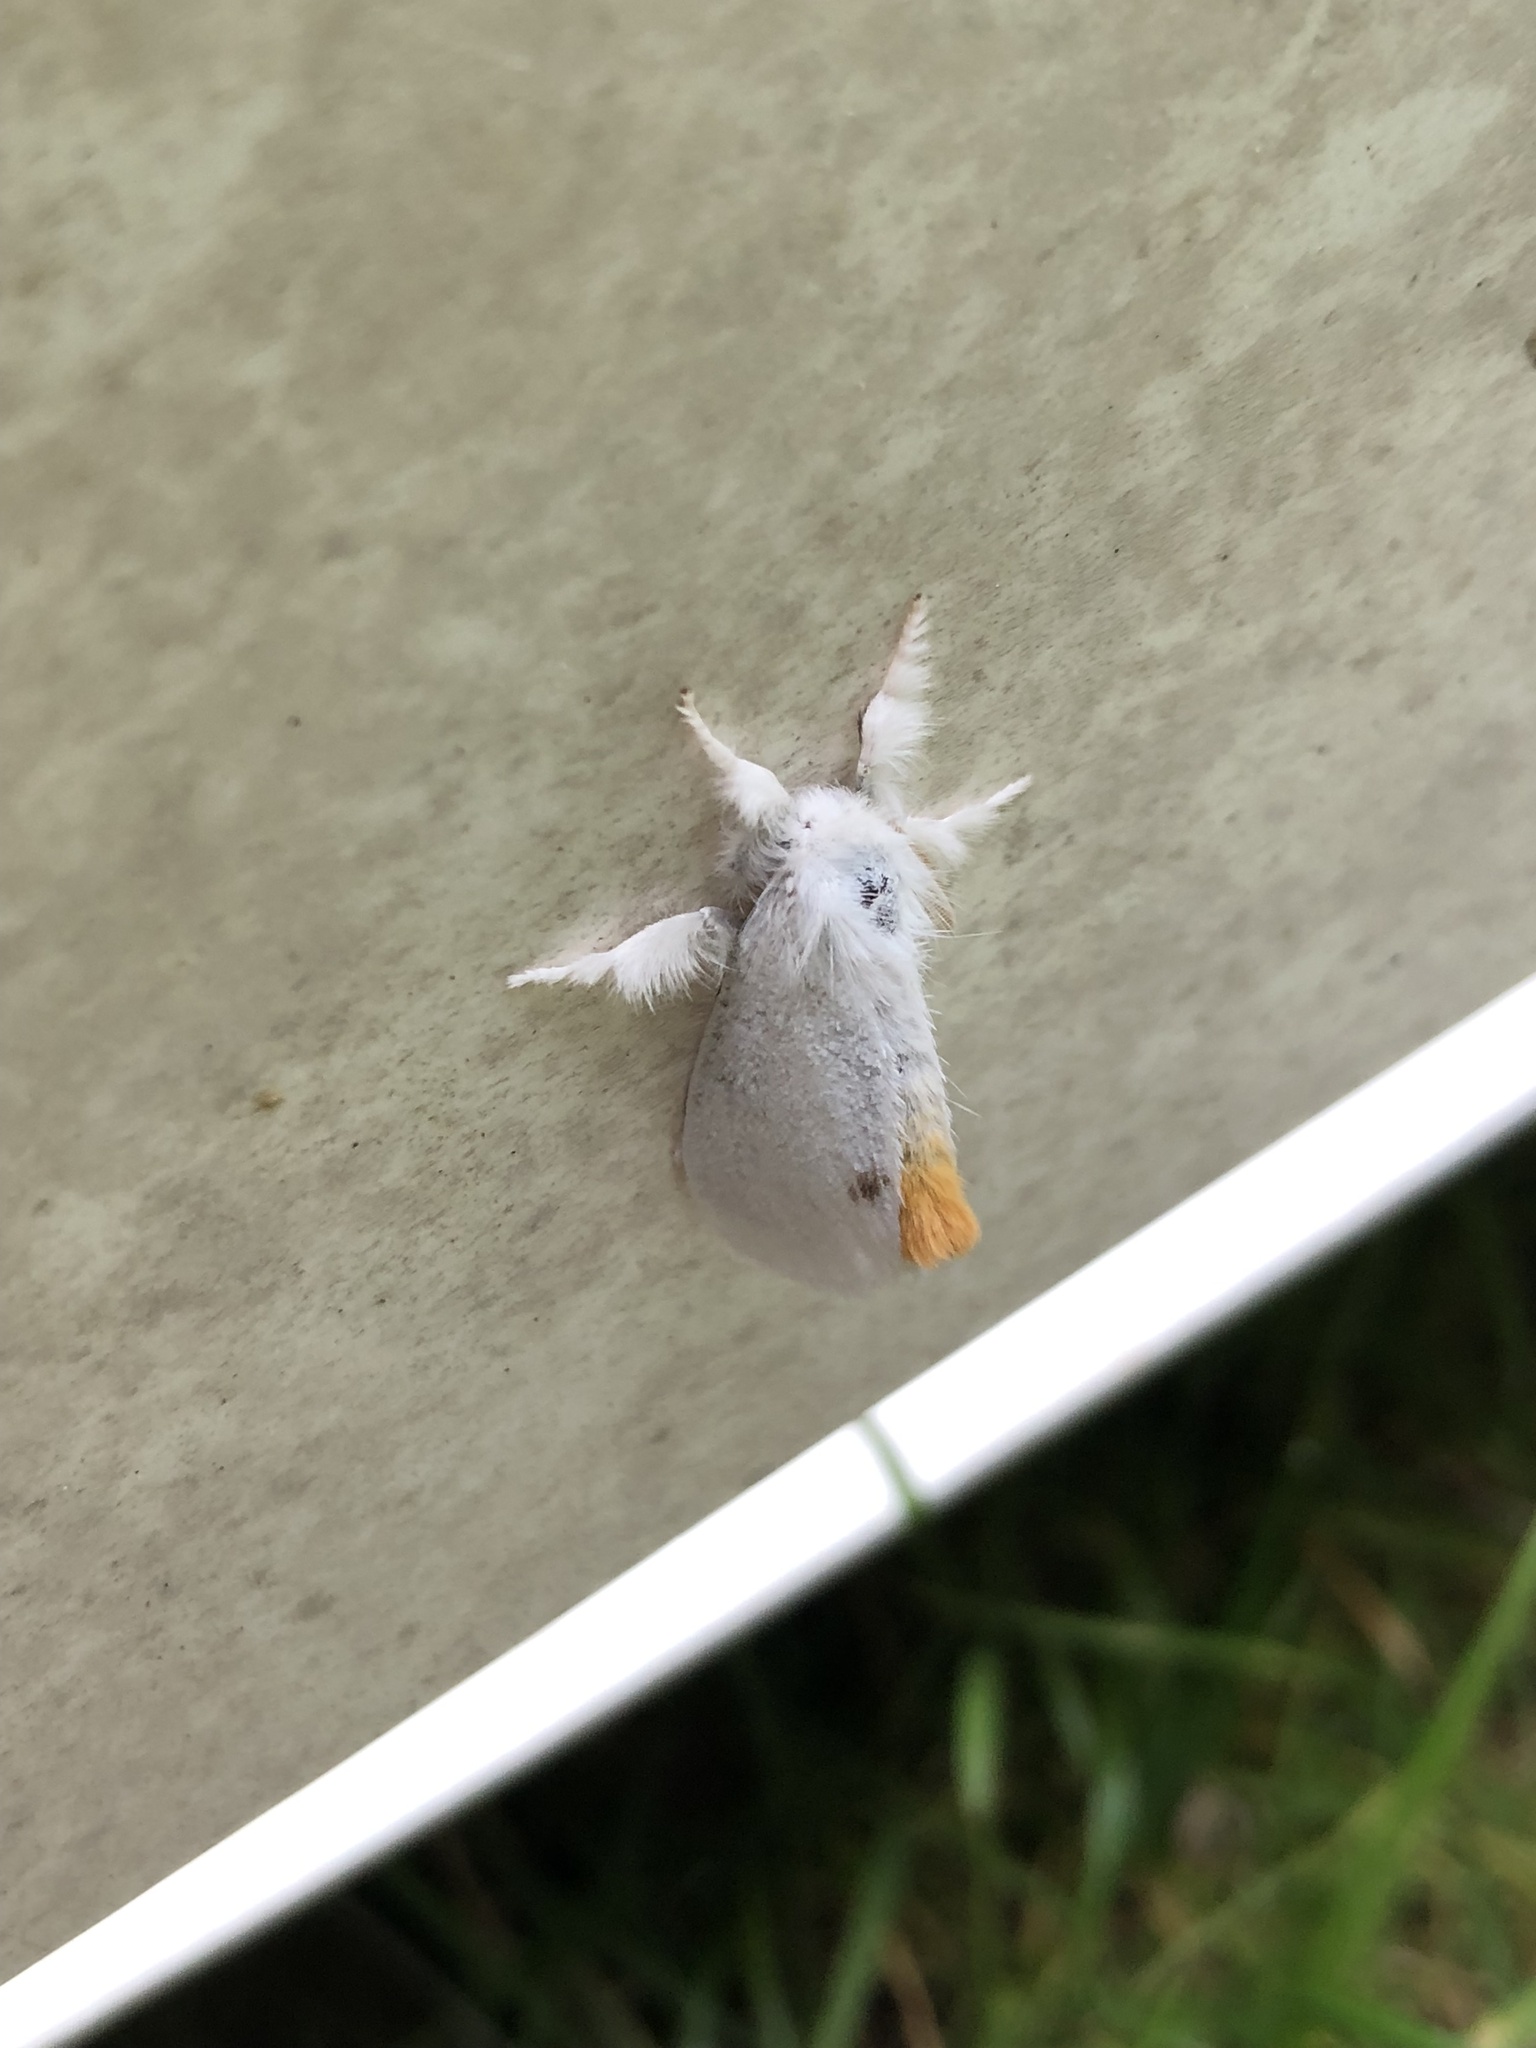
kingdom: Animalia
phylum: Arthropoda
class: Insecta
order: Lepidoptera
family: Erebidae
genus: Sphrageidus
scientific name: Sphrageidus similis
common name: Yellow-tail
